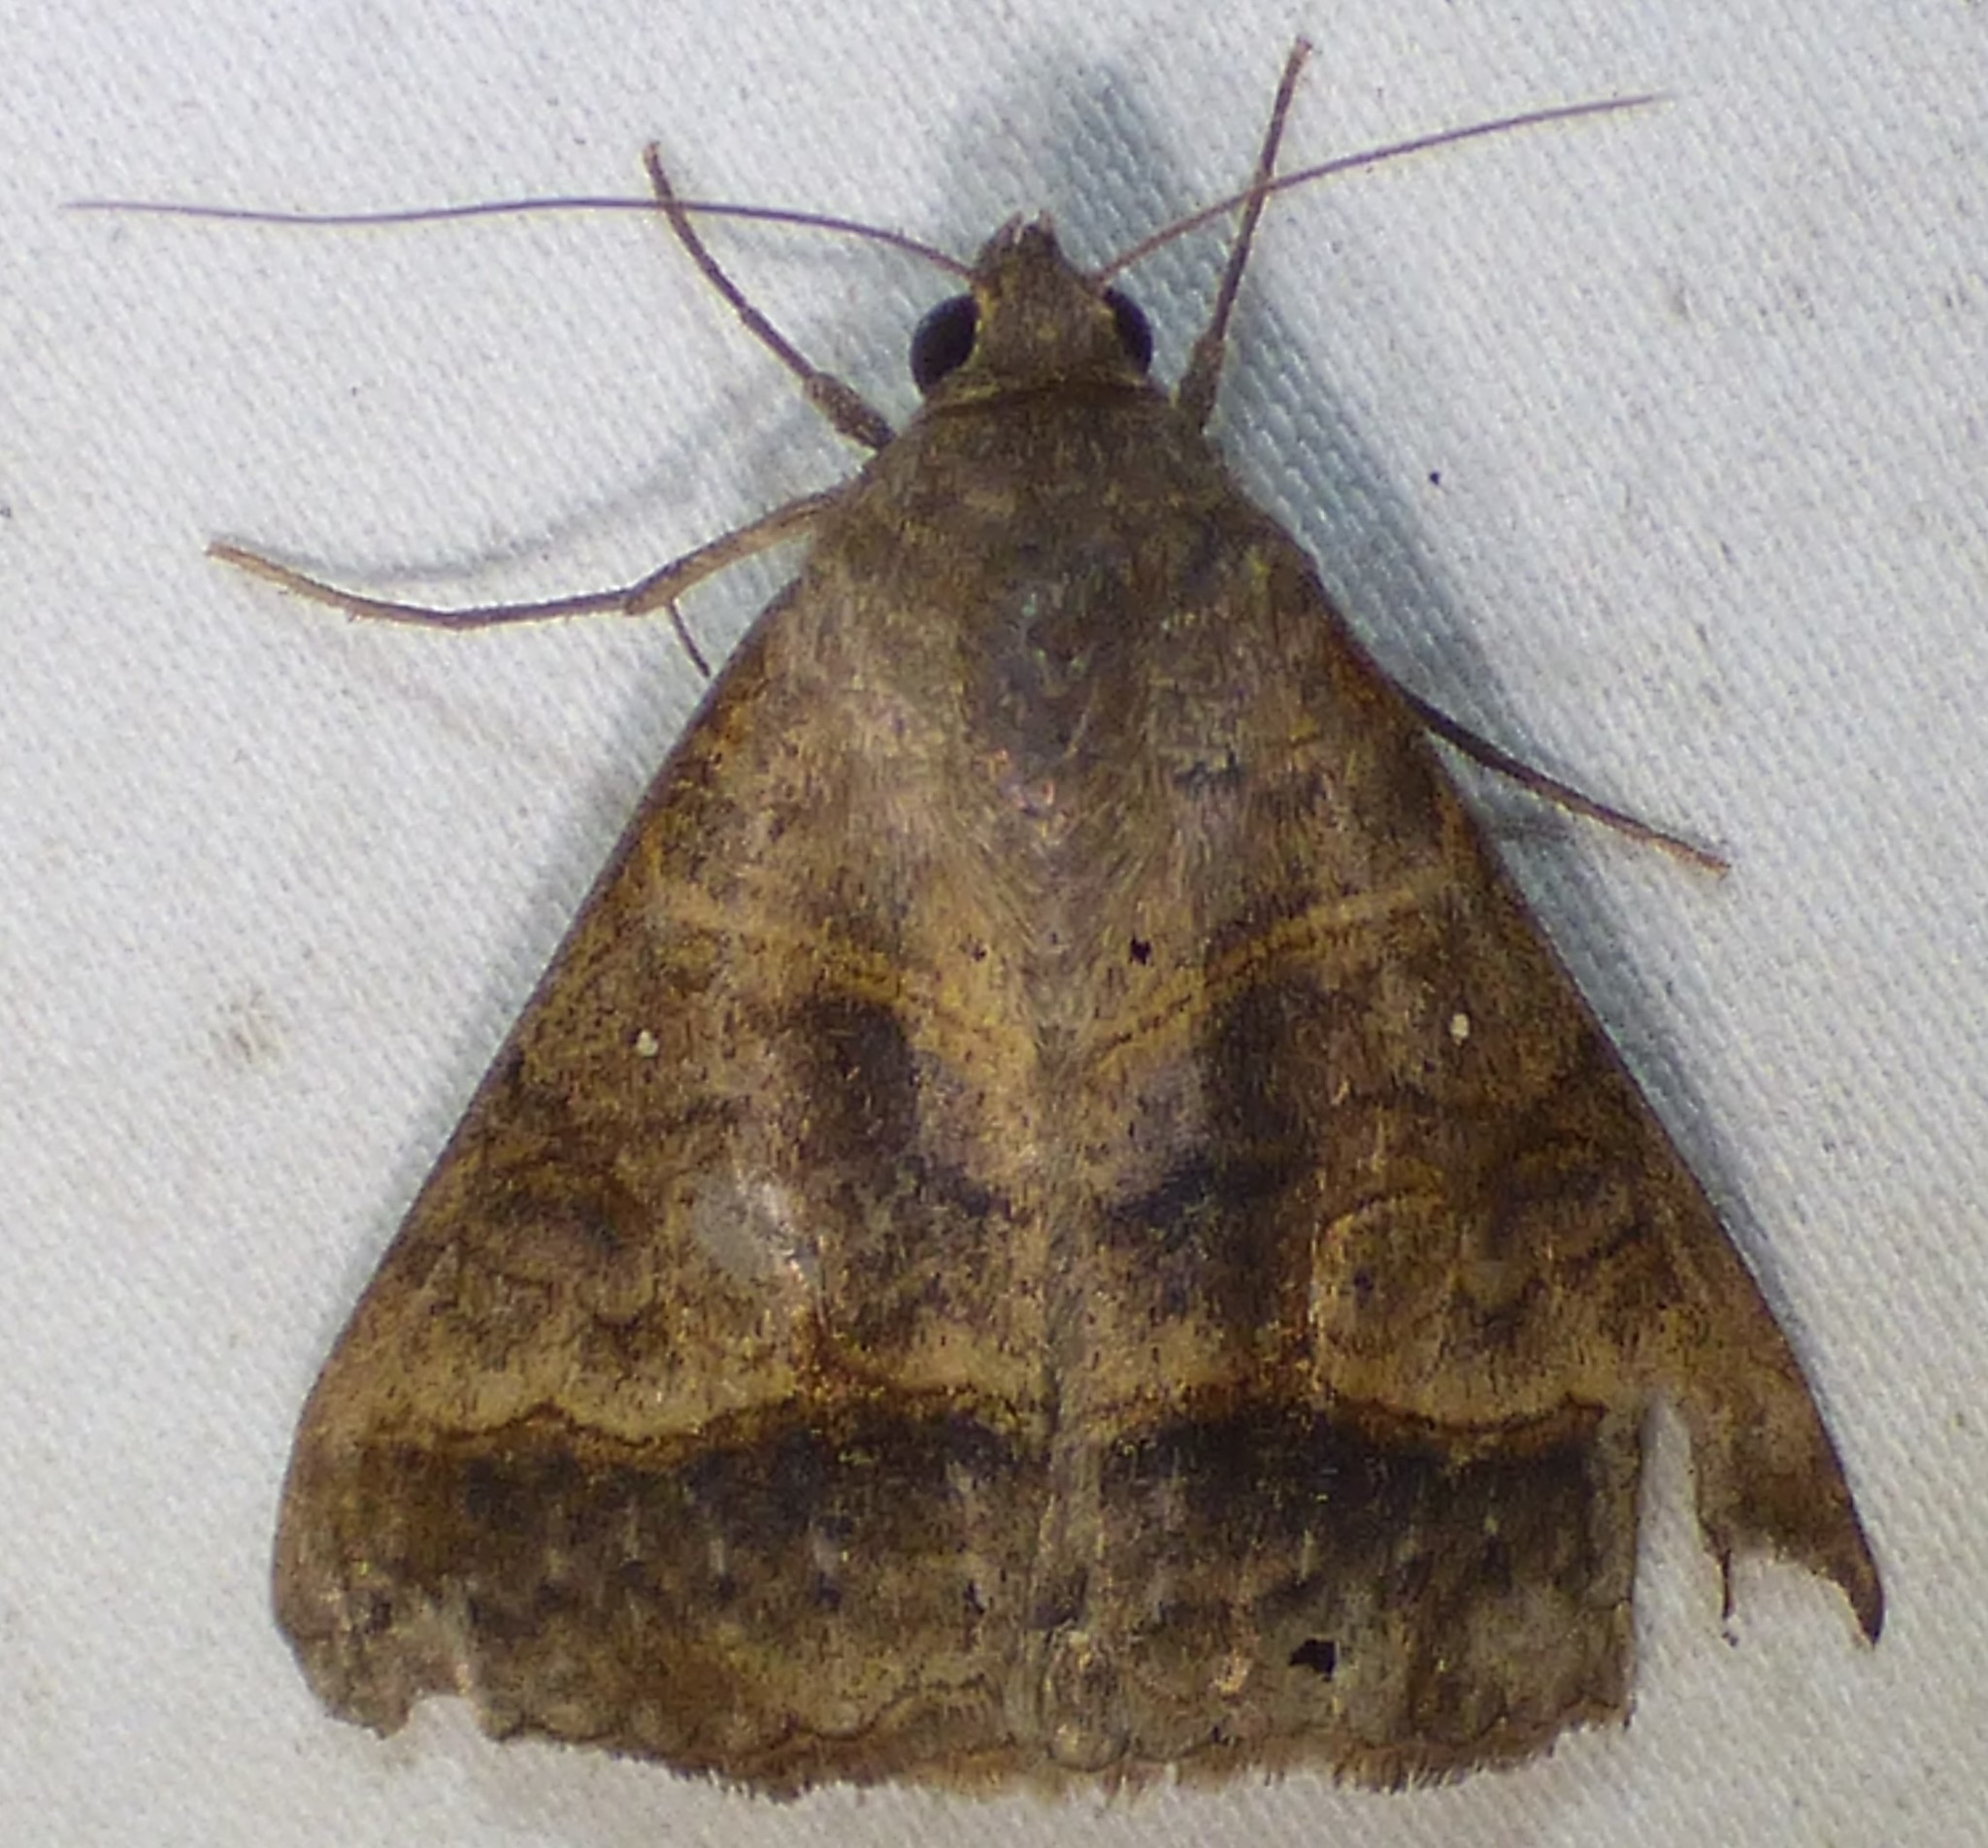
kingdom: Animalia
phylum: Arthropoda
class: Insecta
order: Lepidoptera
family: Erebidae
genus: Mocis
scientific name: Mocis latipes
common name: Striped grass looper
